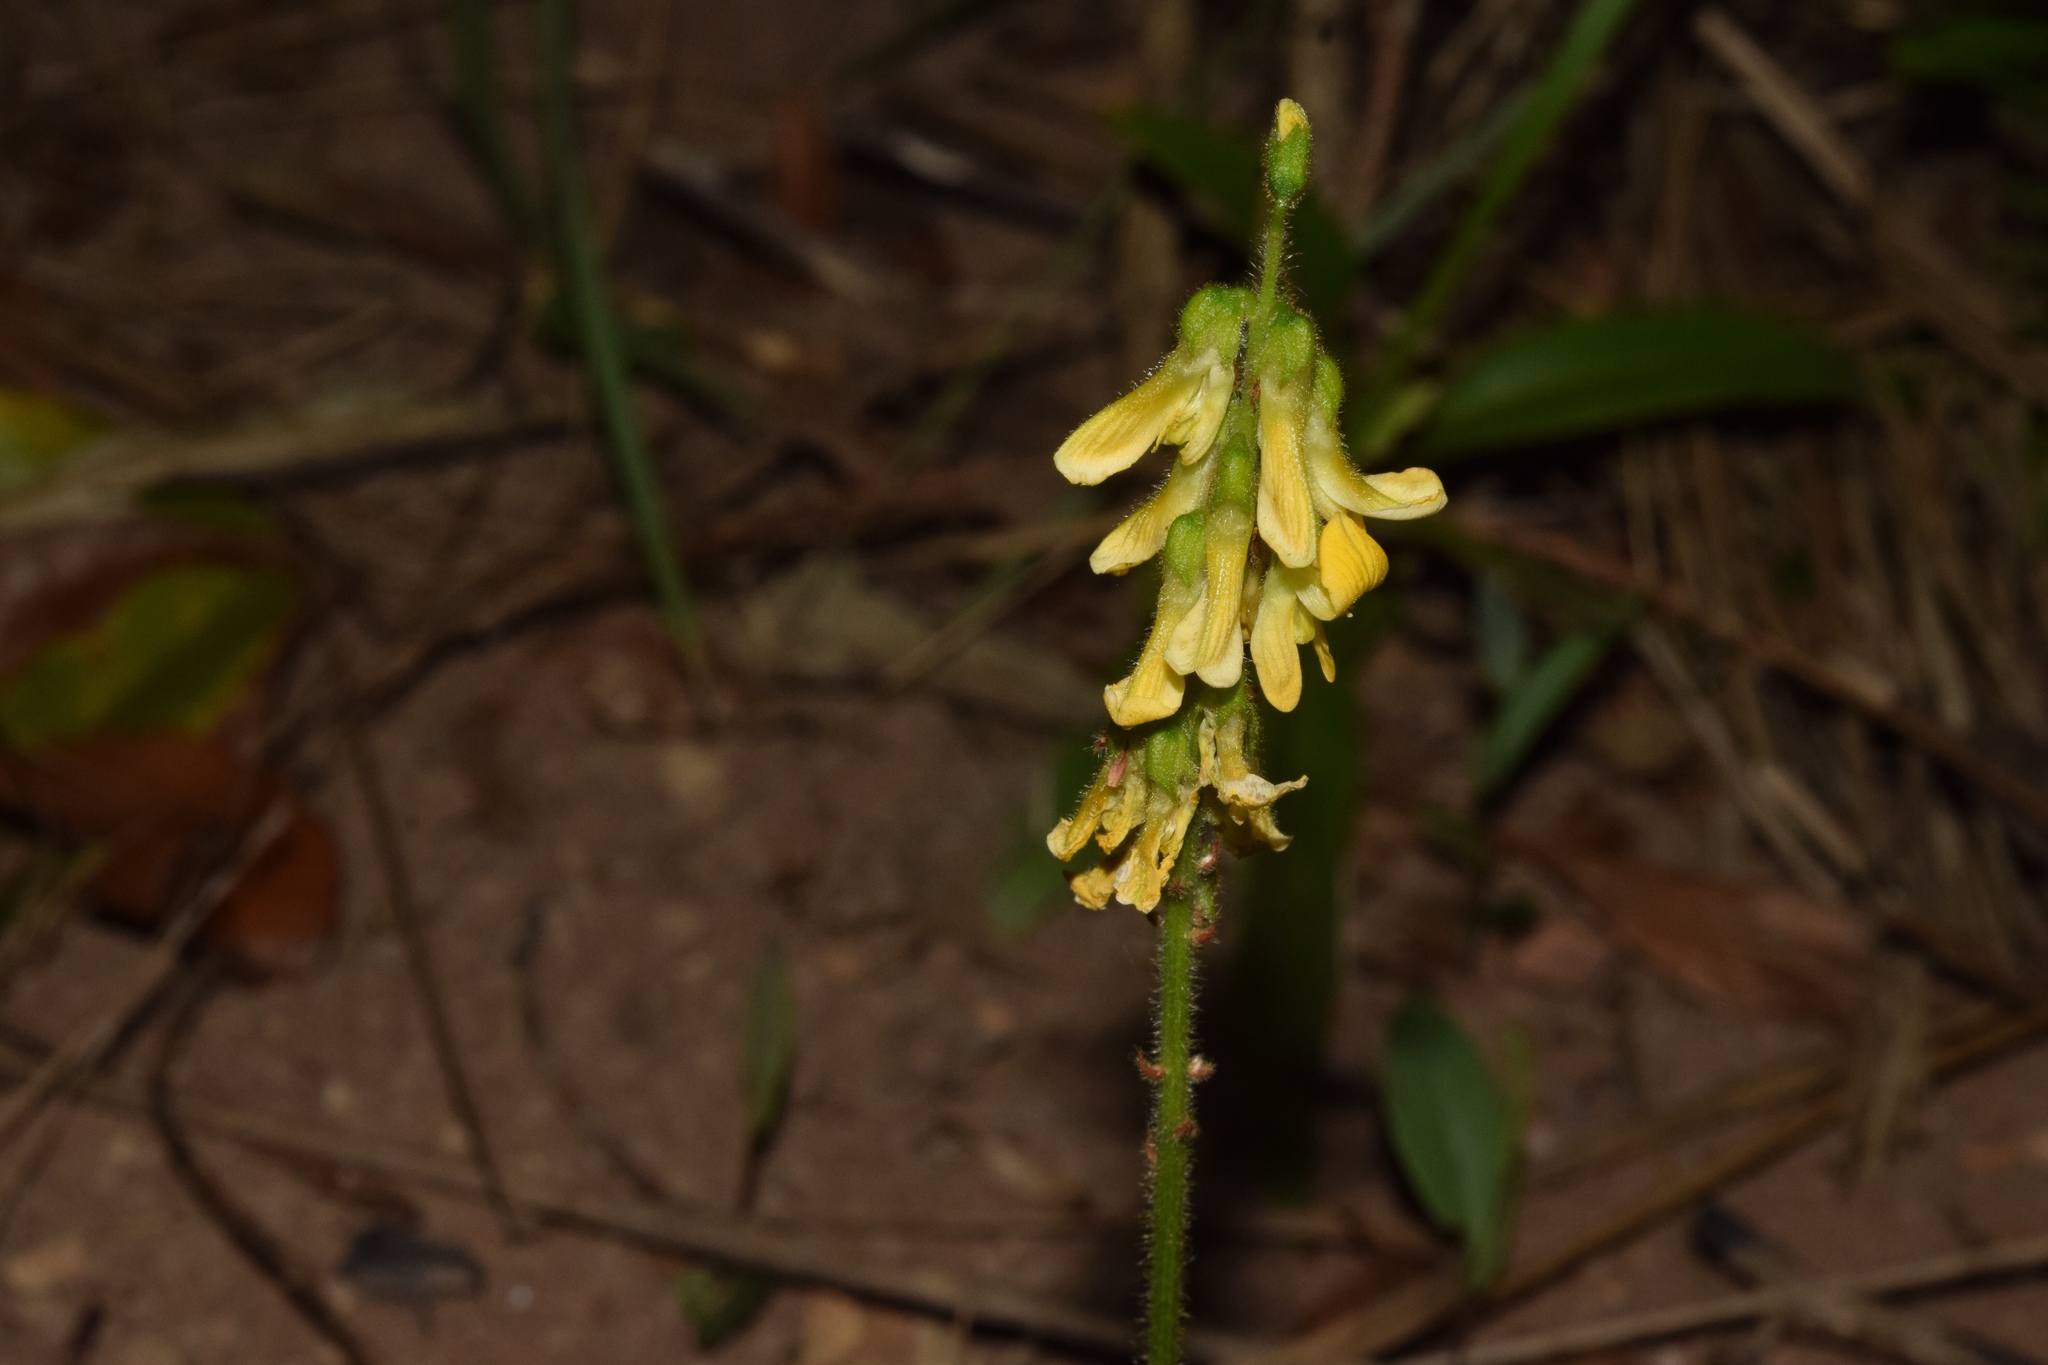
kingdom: Plantae
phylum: Tracheophyta
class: Magnoliopsida
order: Fabales
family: Fabaceae
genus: Eriosema
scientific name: Eriosema cordatum
